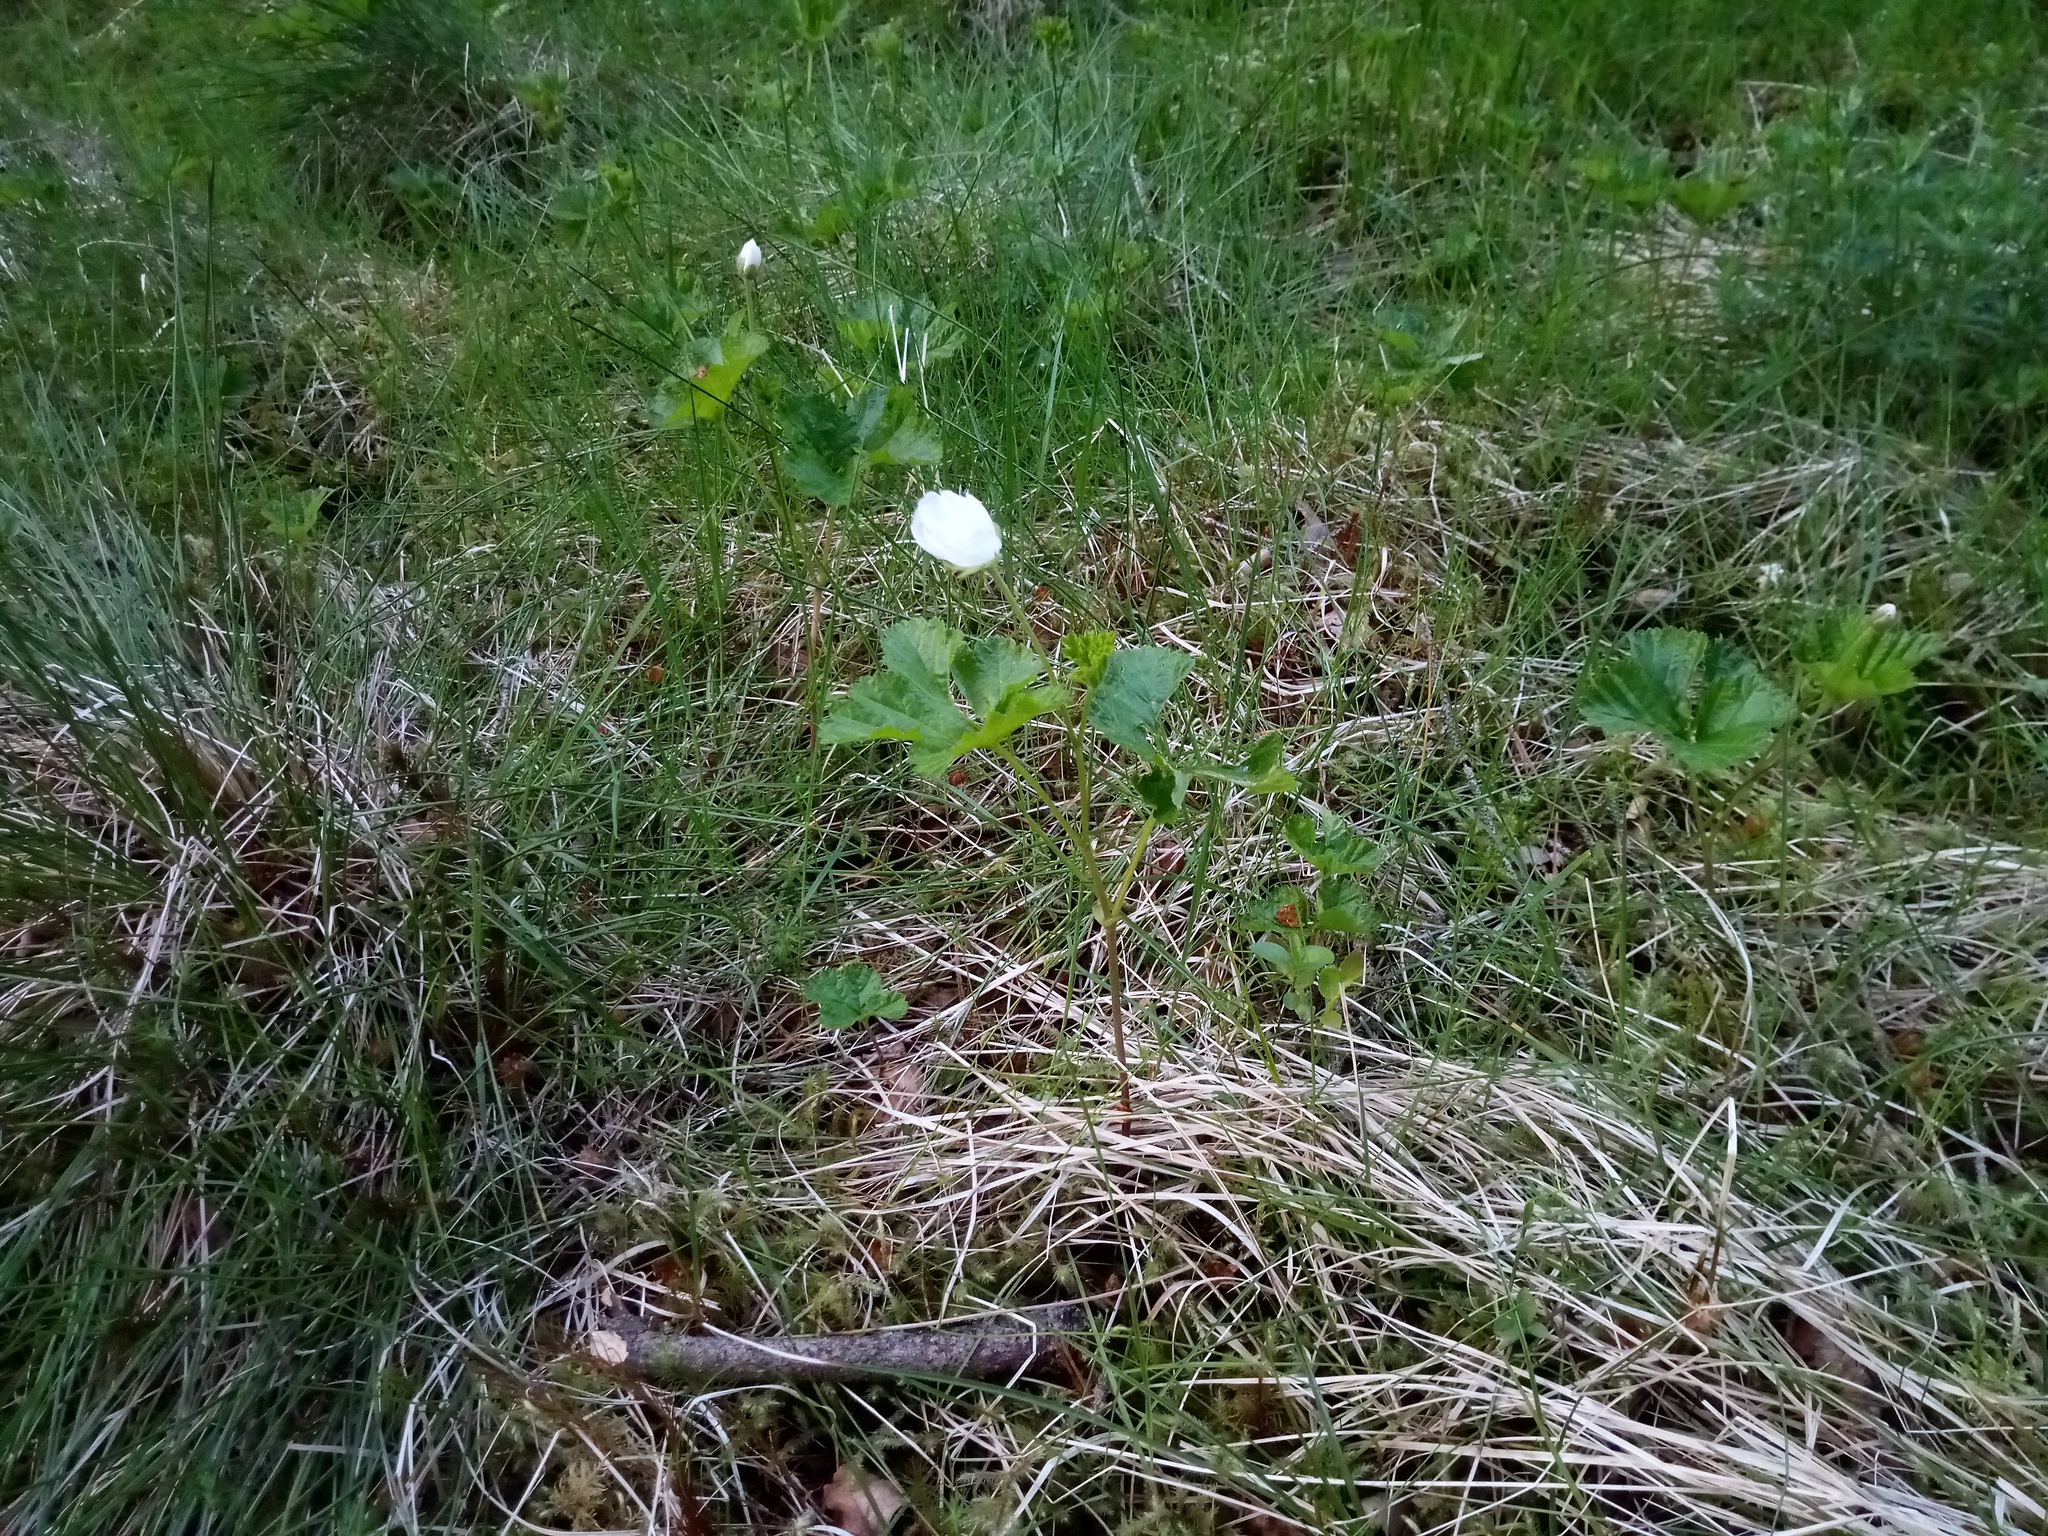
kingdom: Plantae
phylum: Tracheophyta
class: Magnoliopsida
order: Rosales
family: Rosaceae
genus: Rubus
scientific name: Rubus chamaemorus
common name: Cloudberry
